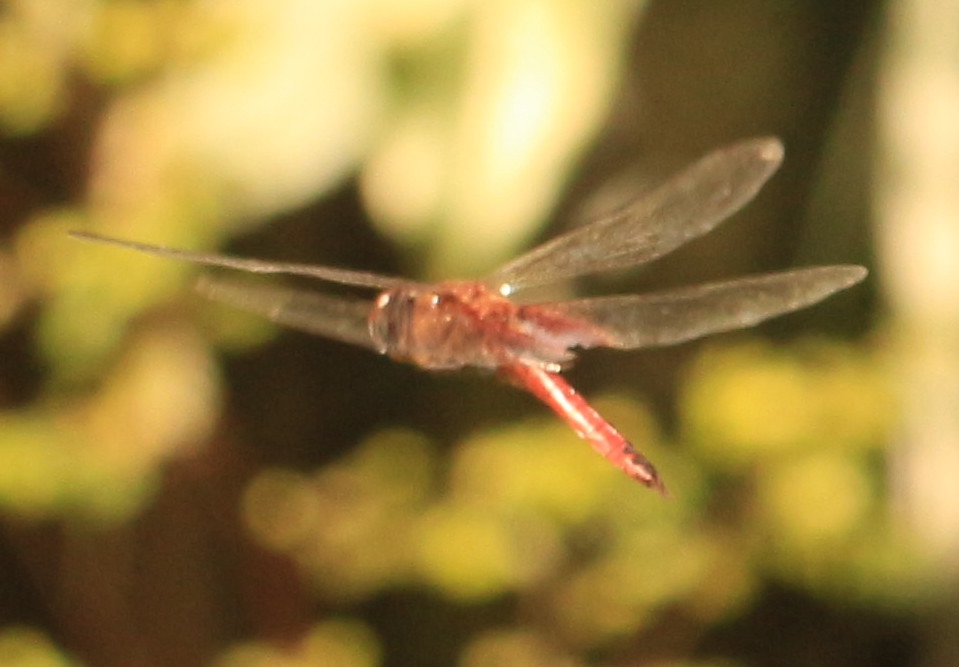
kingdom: Animalia
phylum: Arthropoda
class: Insecta
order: Odonata
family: Libellulidae
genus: Tramea
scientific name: Tramea abdominalis
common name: Vermilion saddlebags
